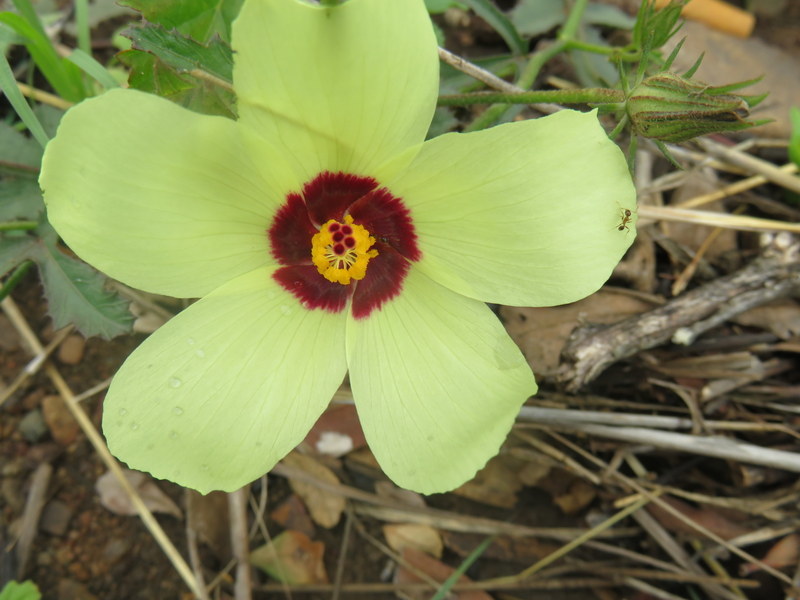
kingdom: Plantae
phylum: Tracheophyta
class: Magnoliopsida
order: Malvales
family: Malvaceae
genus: Hibiscus
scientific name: Hibiscus pusillus
